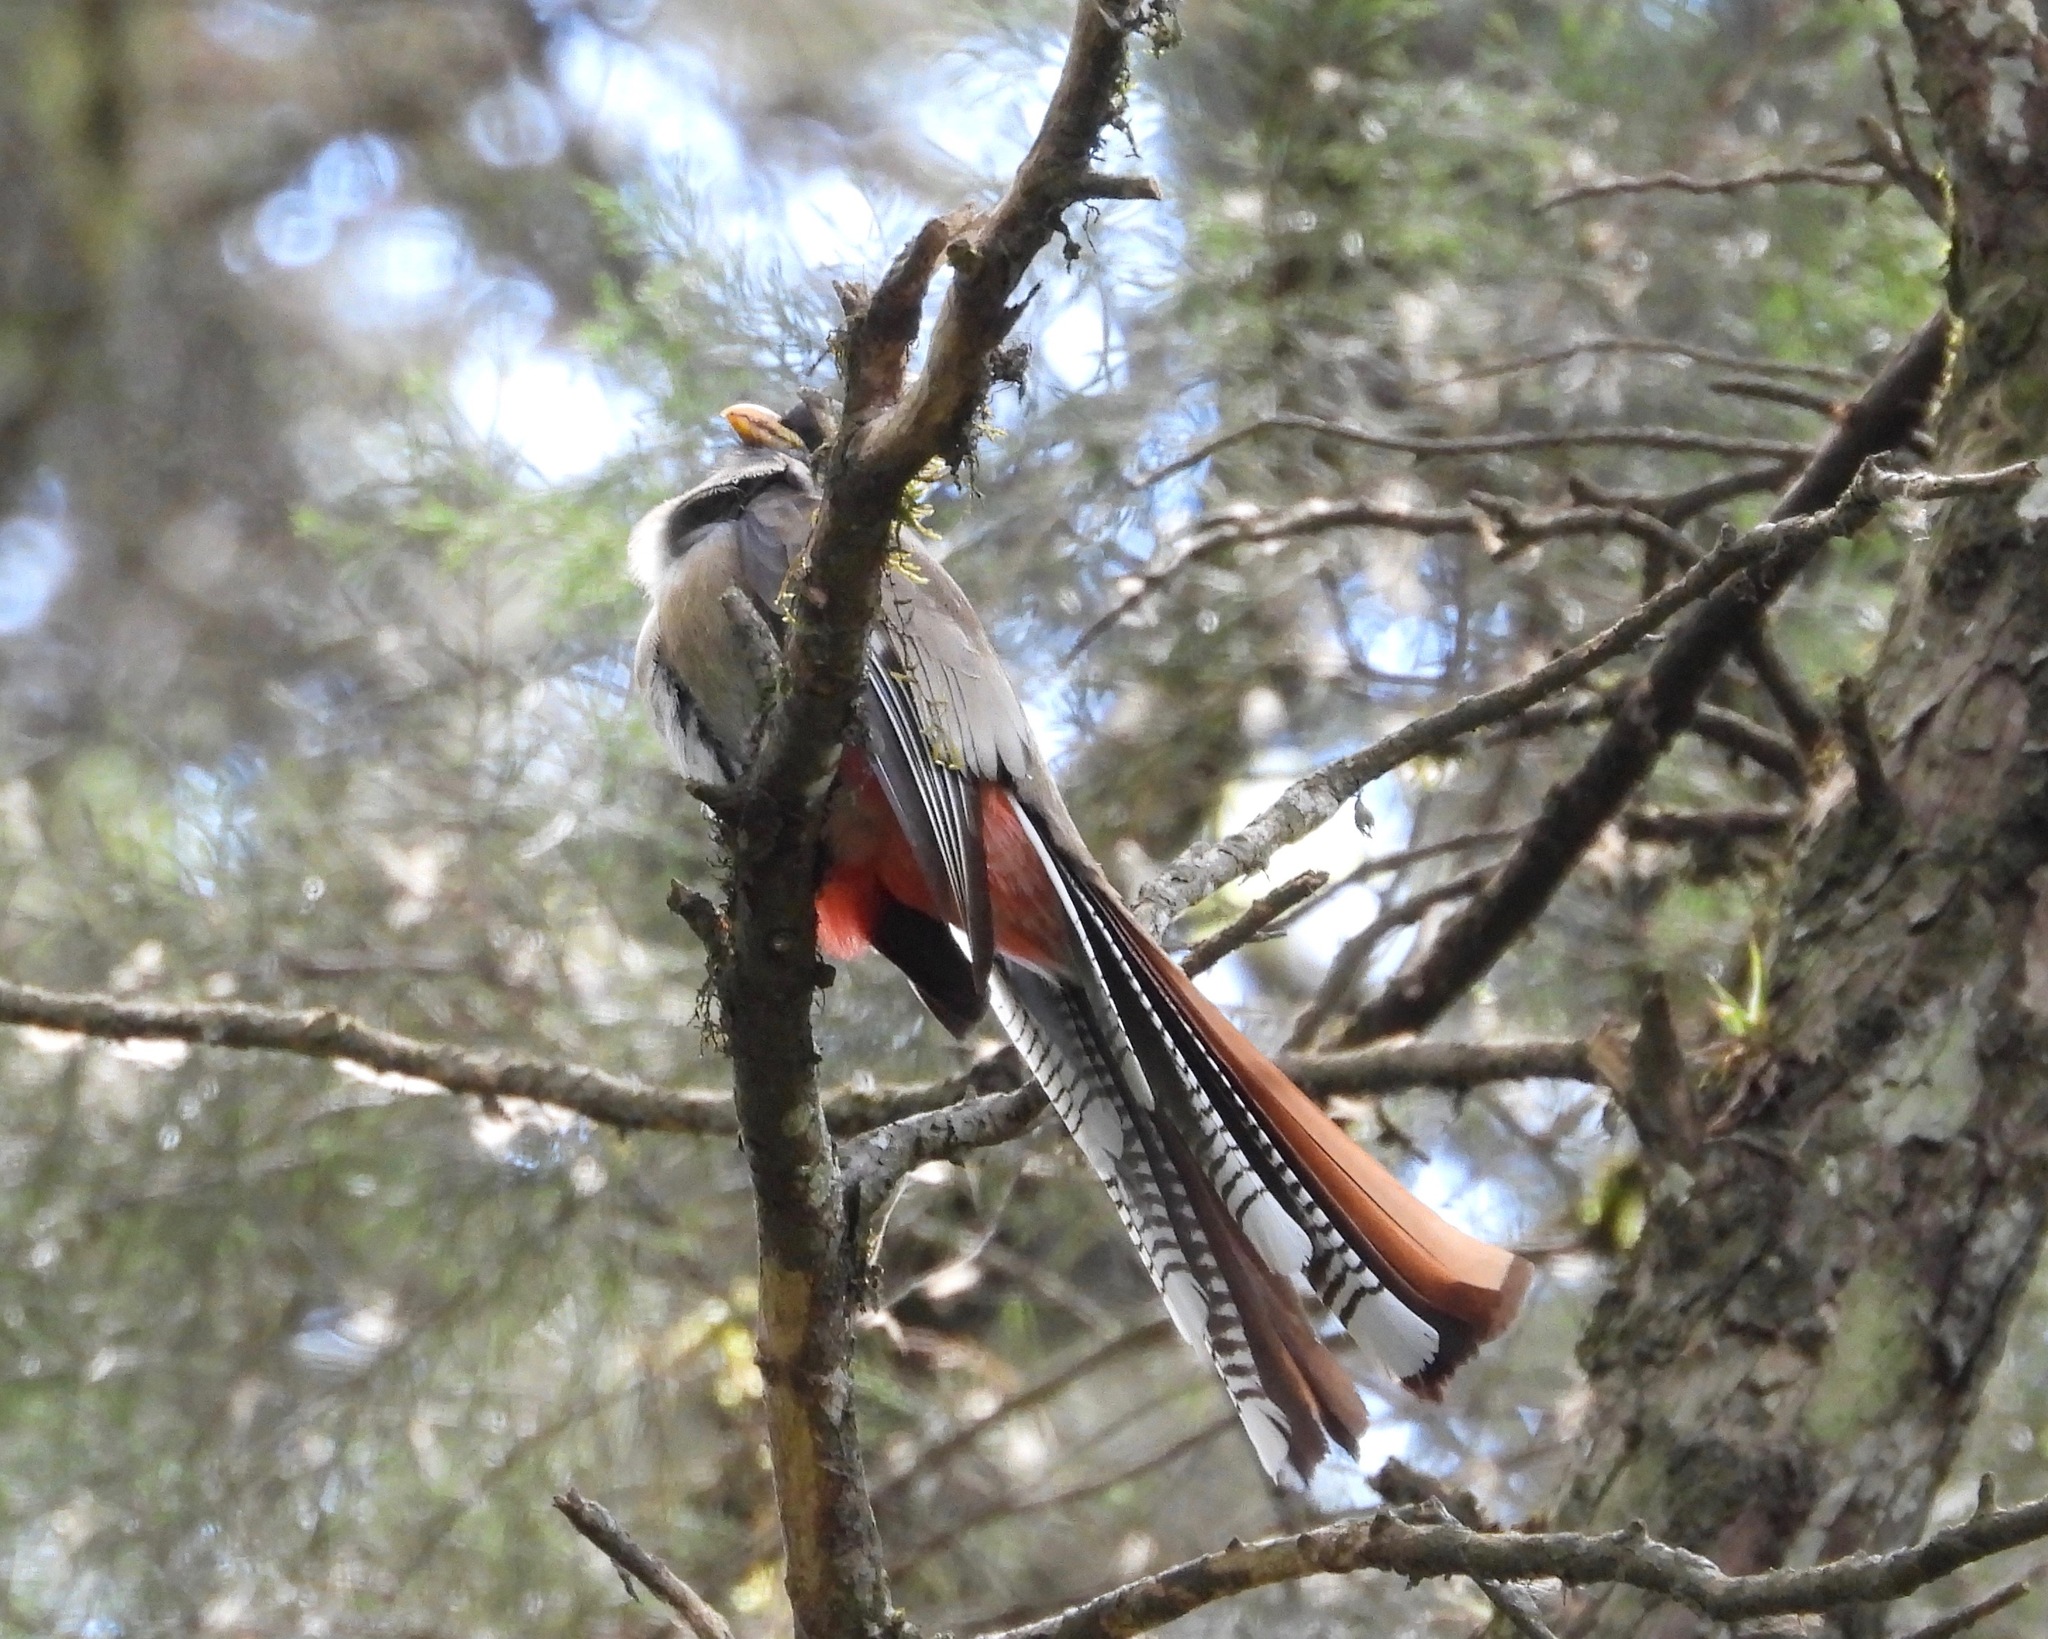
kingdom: Animalia
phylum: Chordata
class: Aves
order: Trogoniformes
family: Trogonidae
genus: Trogon
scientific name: Trogon elegans
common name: Elegant trogon
